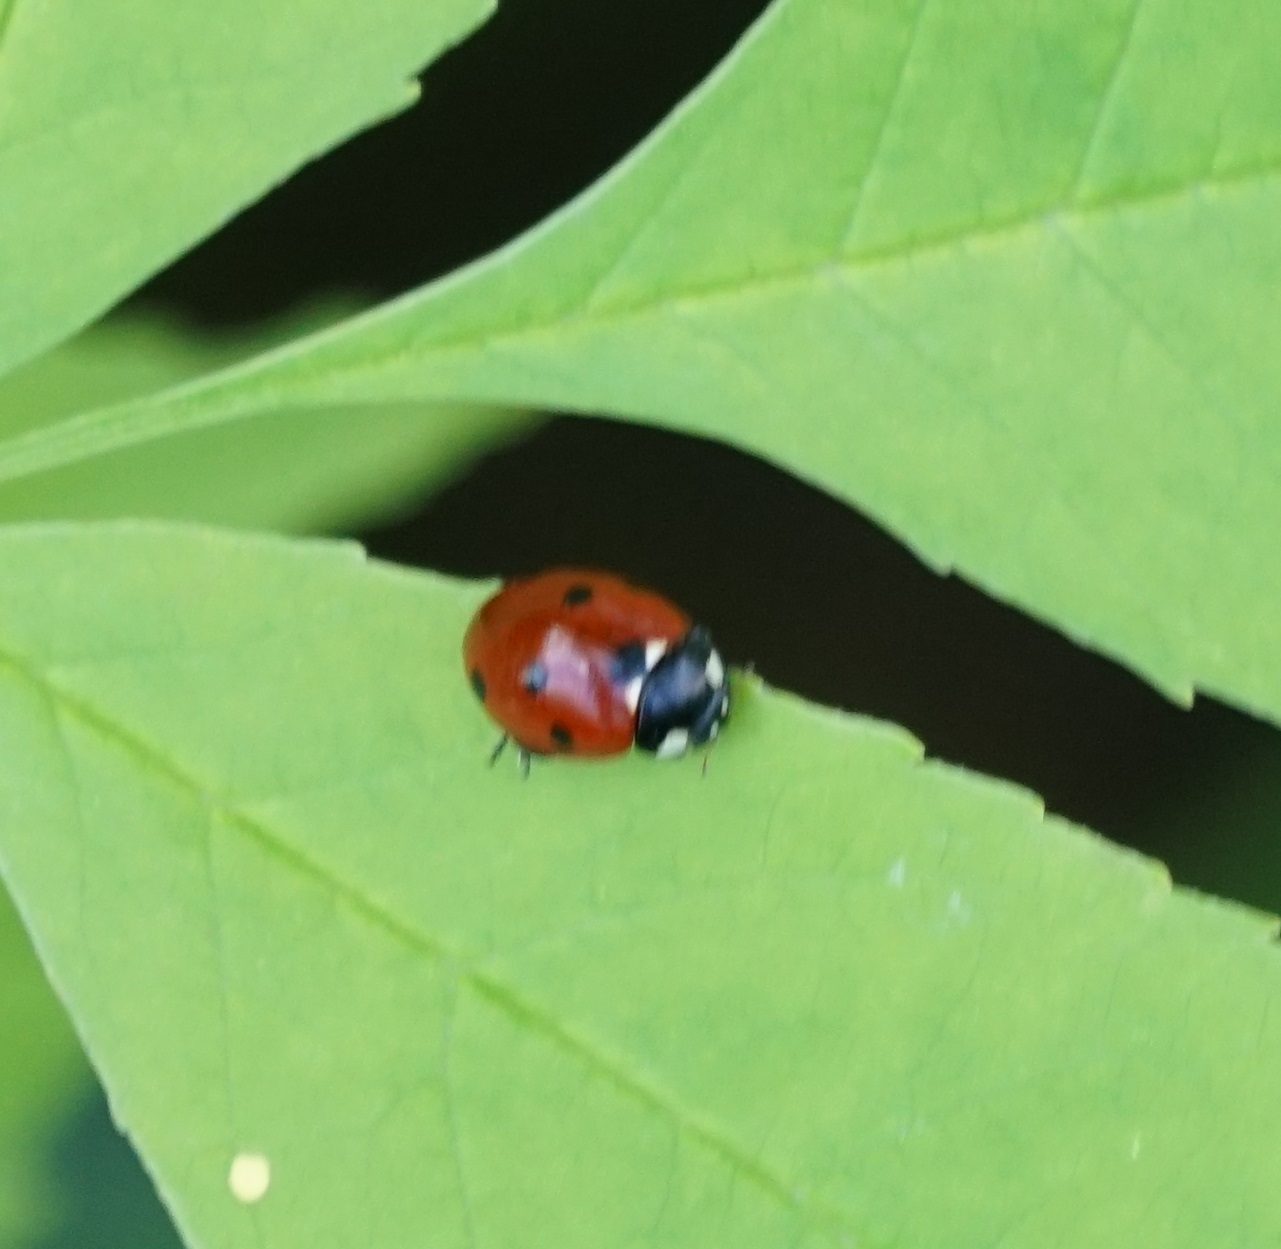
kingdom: Animalia
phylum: Arthropoda
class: Insecta
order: Coleoptera
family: Coccinellidae
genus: Coccinella
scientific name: Coccinella septempunctata
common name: Sevenspotted lady beetle
